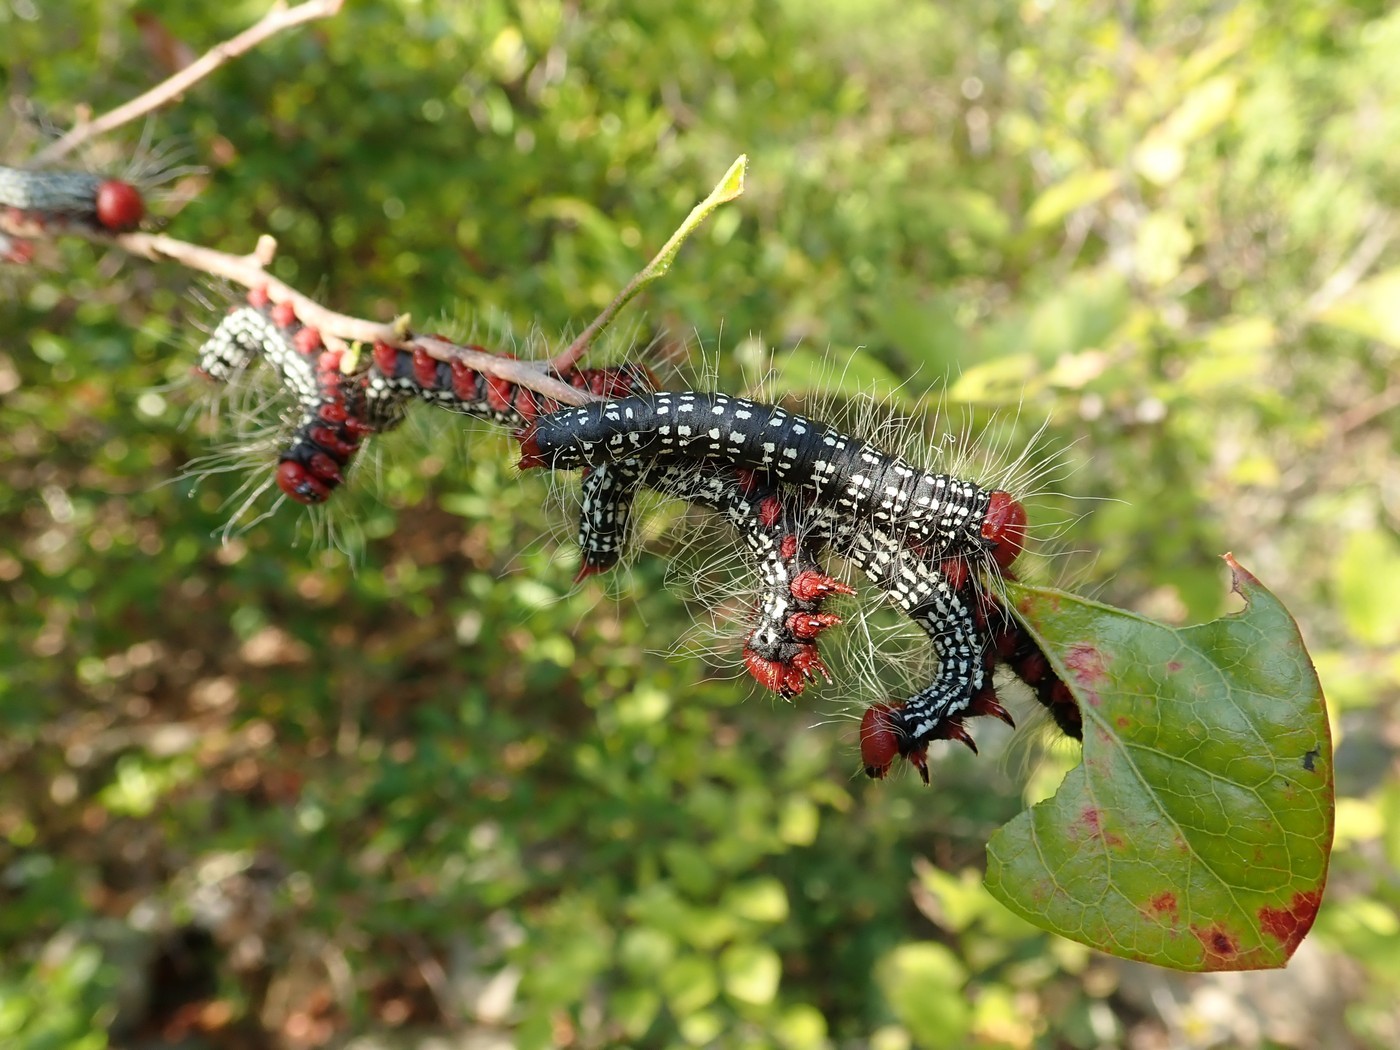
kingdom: Animalia
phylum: Arthropoda
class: Insecta
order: Lepidoptera
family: Notodontidae
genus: Datana
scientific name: Datana major
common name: Azalea caterpillar
